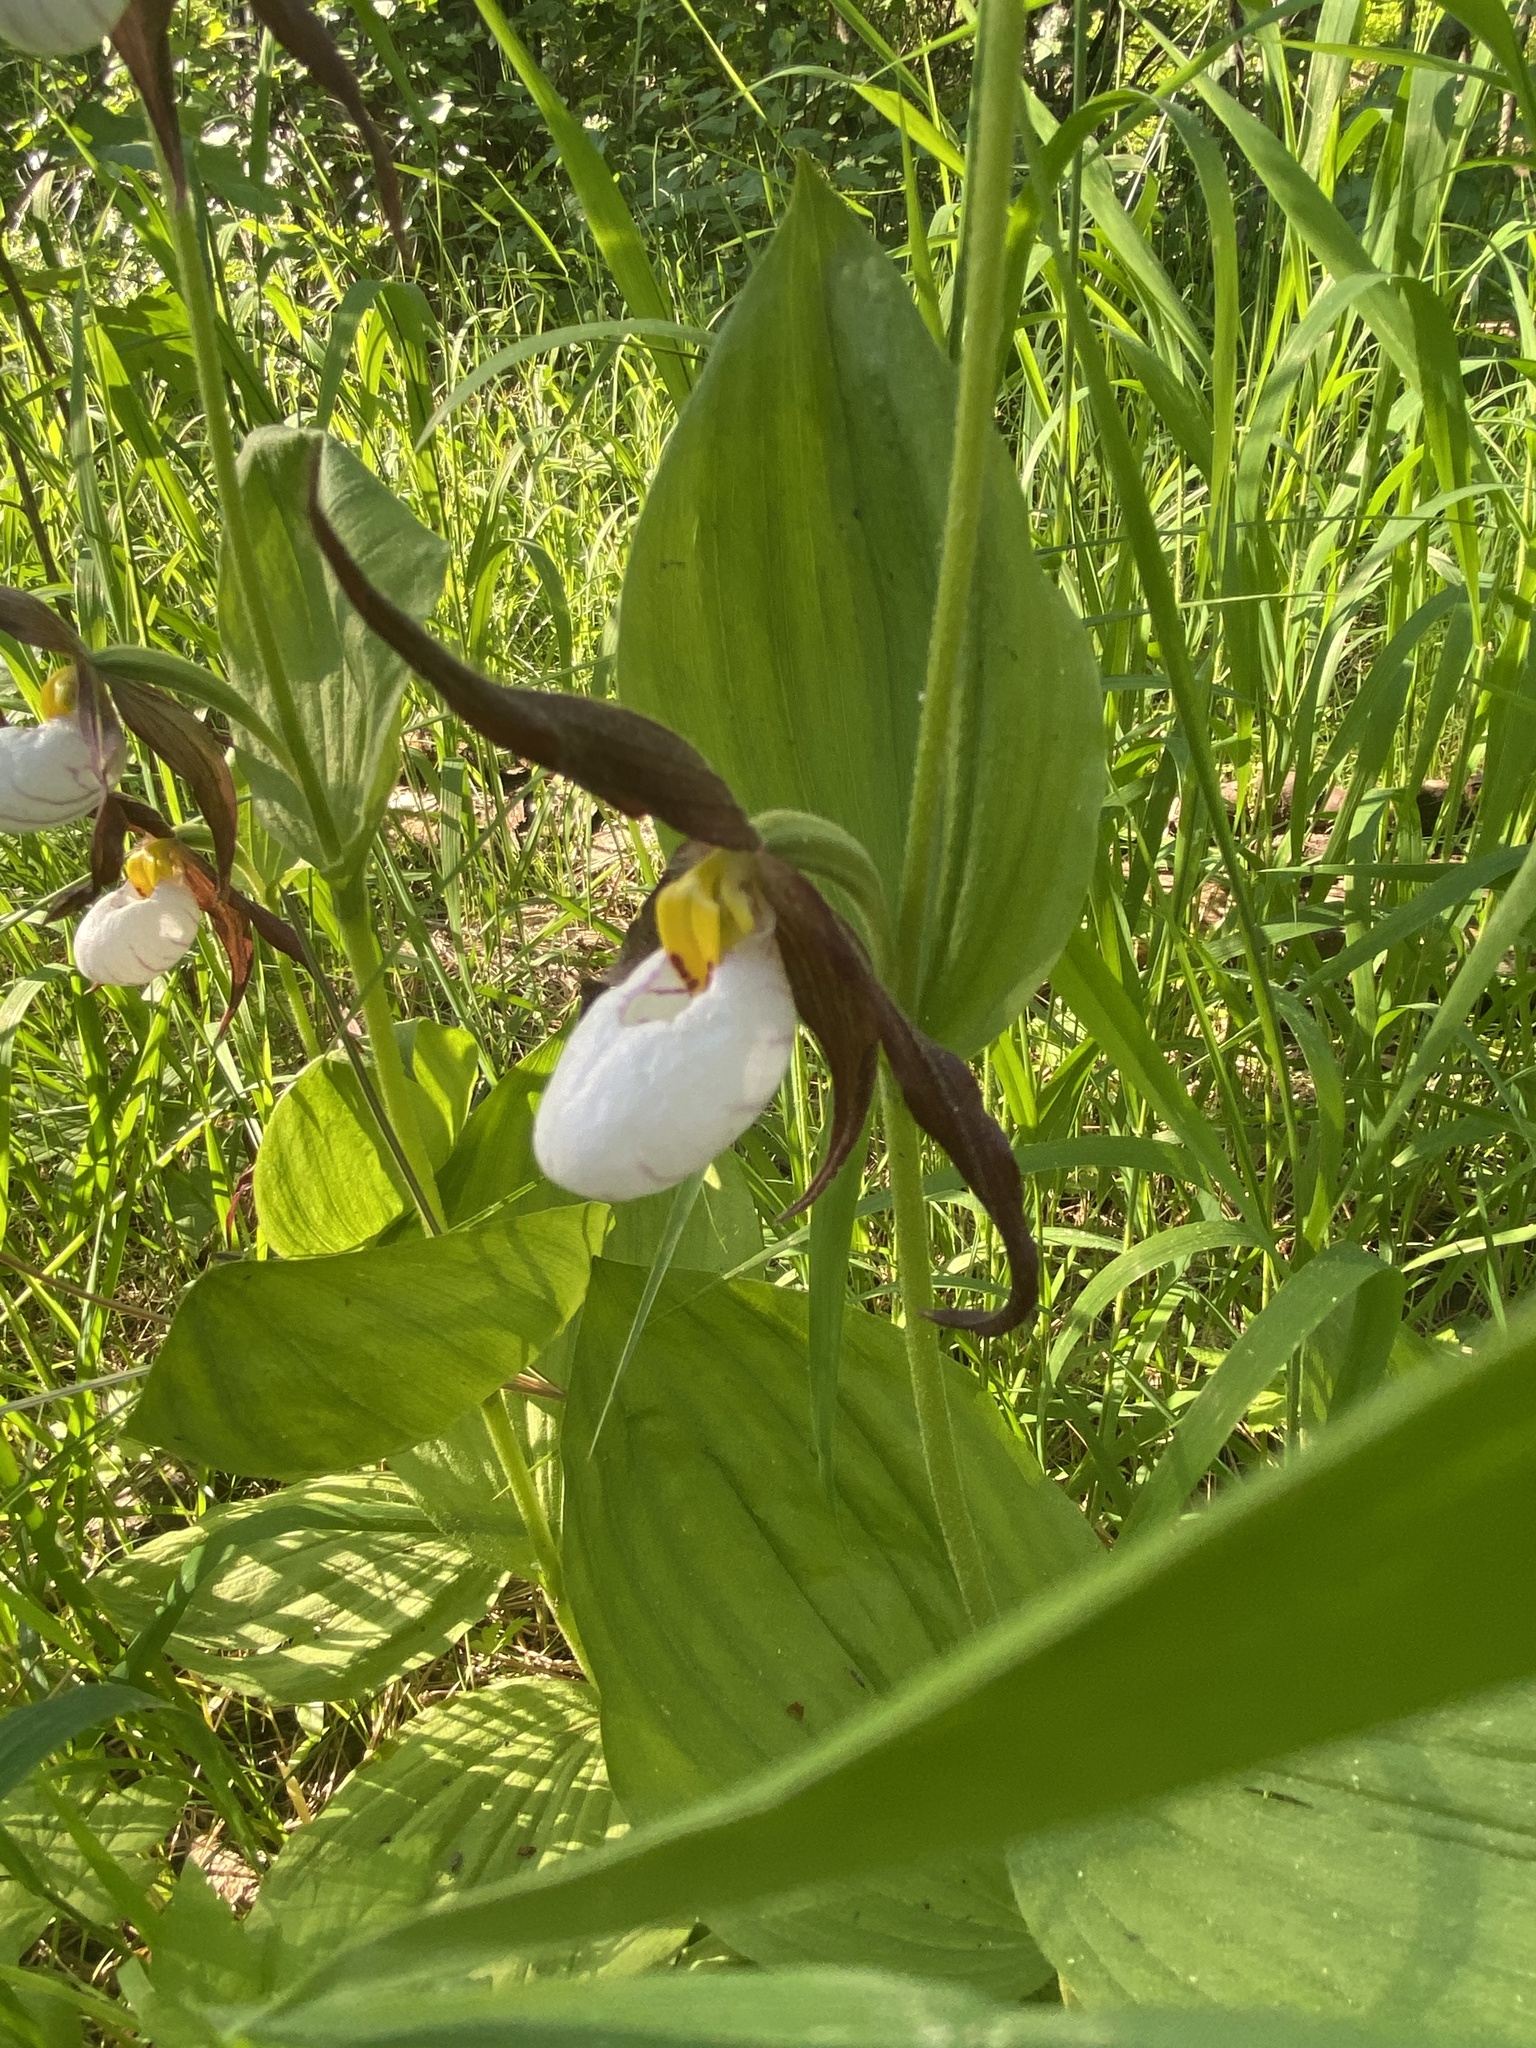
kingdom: Plantae
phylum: Tracheophyta
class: Liliopsida
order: Asparagales
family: Orchidaceae
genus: Cypripedium
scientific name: Cypripedium montanum
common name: Mountain lady's-slipper
